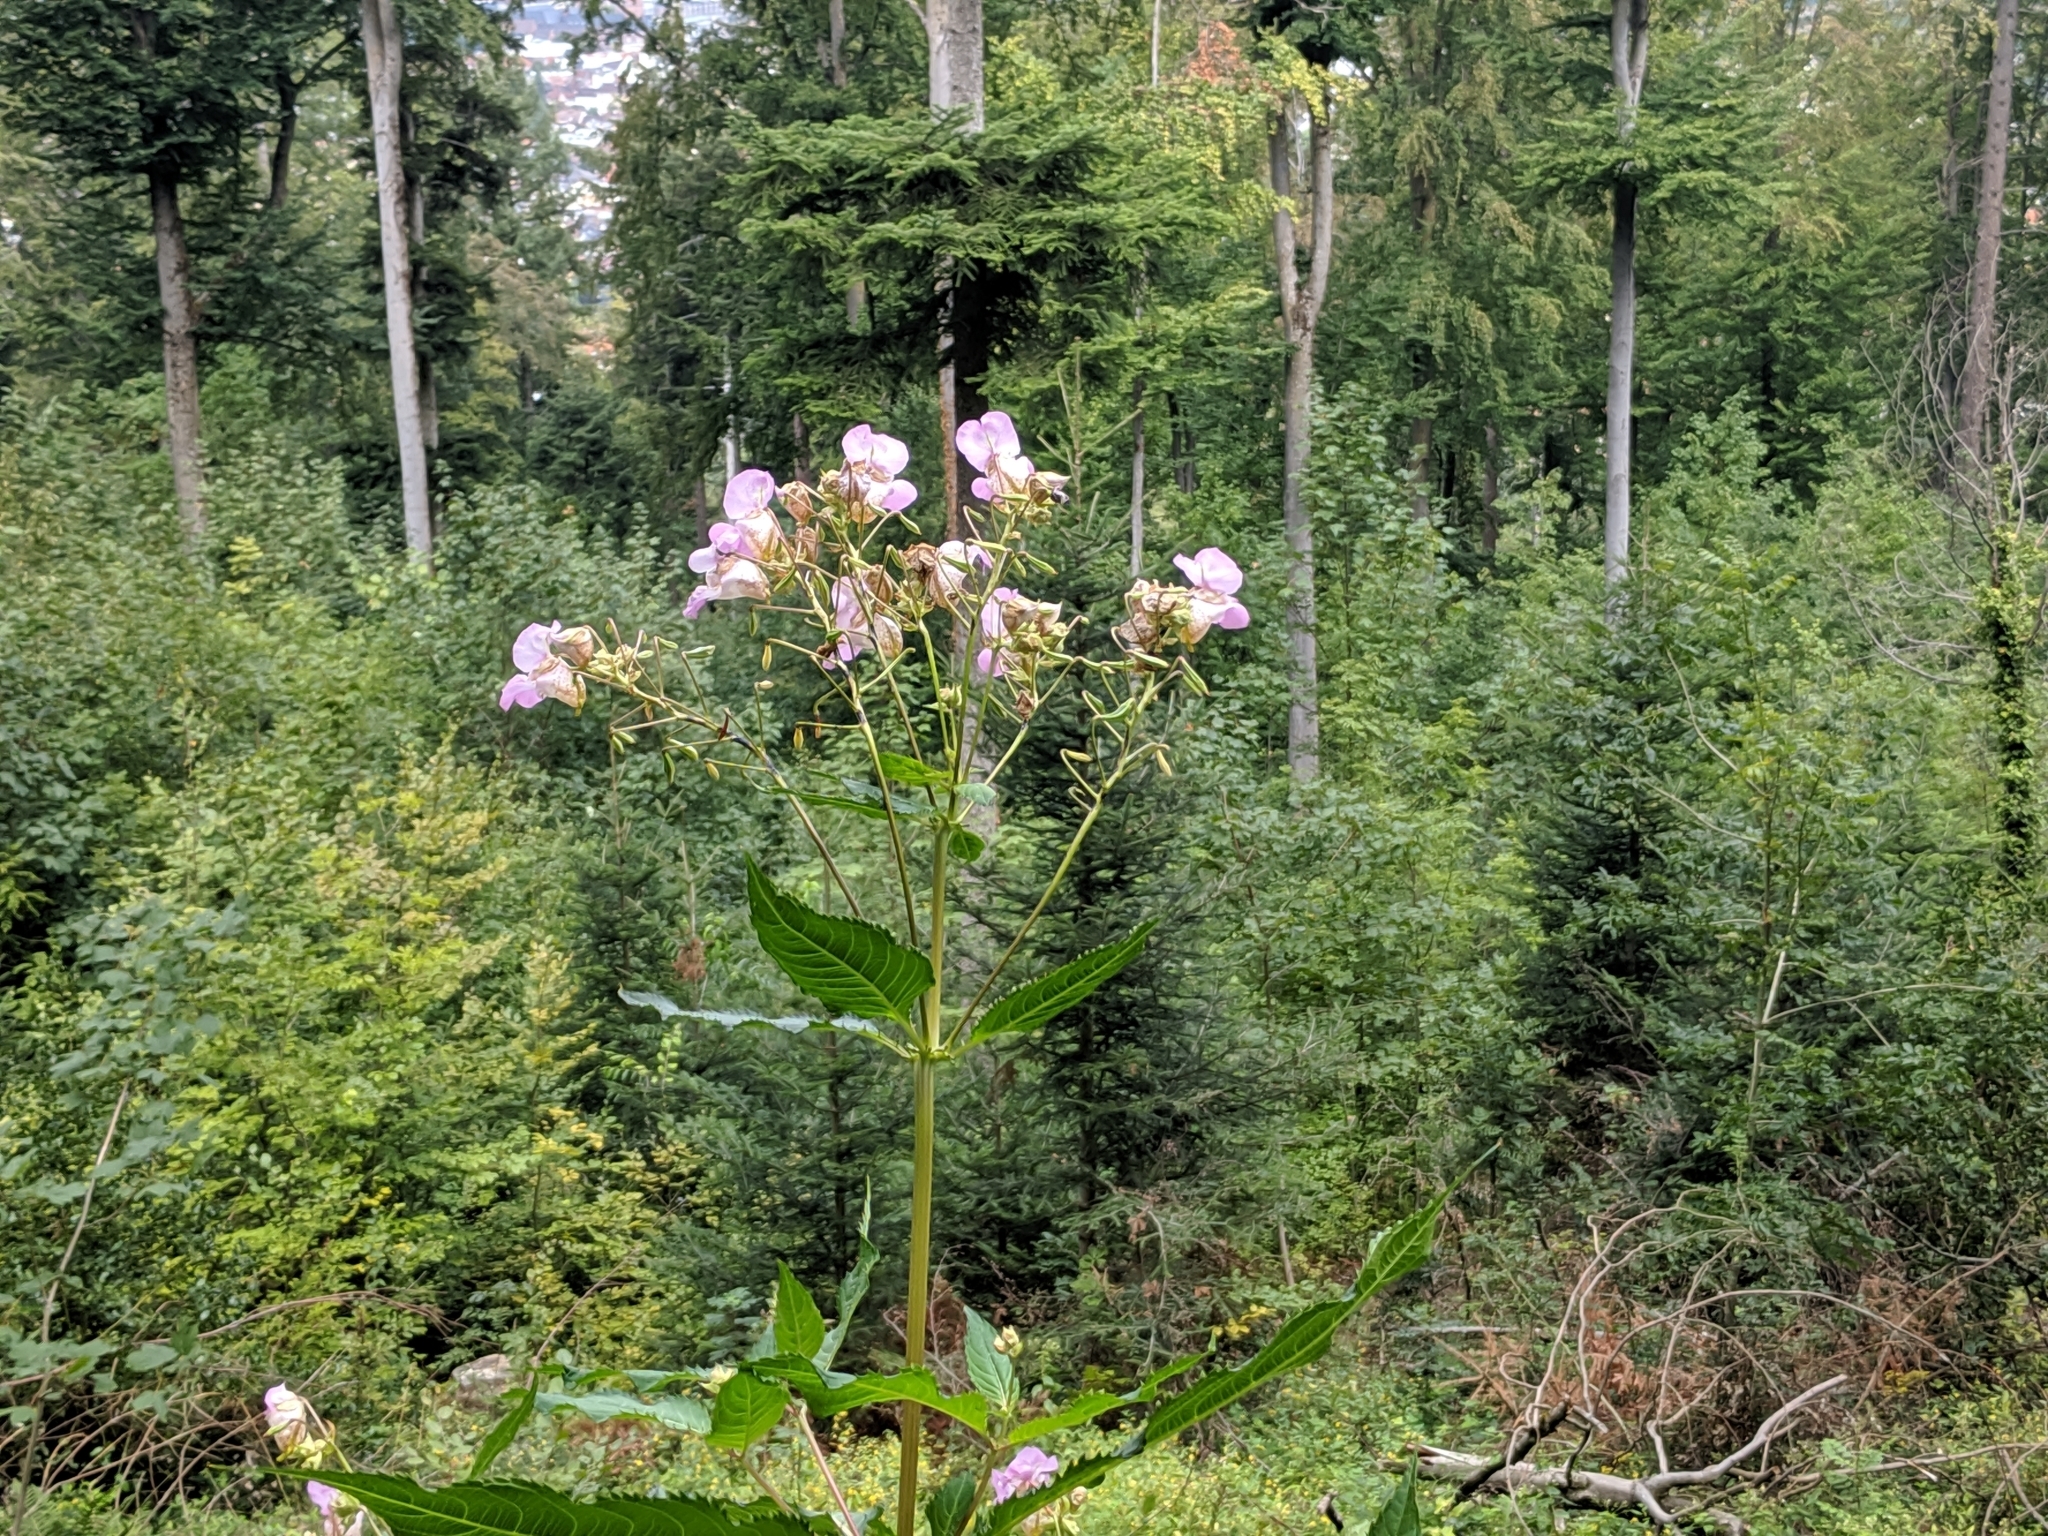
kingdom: Plantae
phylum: Tracheophyta
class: Magnoliopsida
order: Ericales
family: Balsaminaceae
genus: Impatiens
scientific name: Impatiens glandulifera
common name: Himalayan balsam
